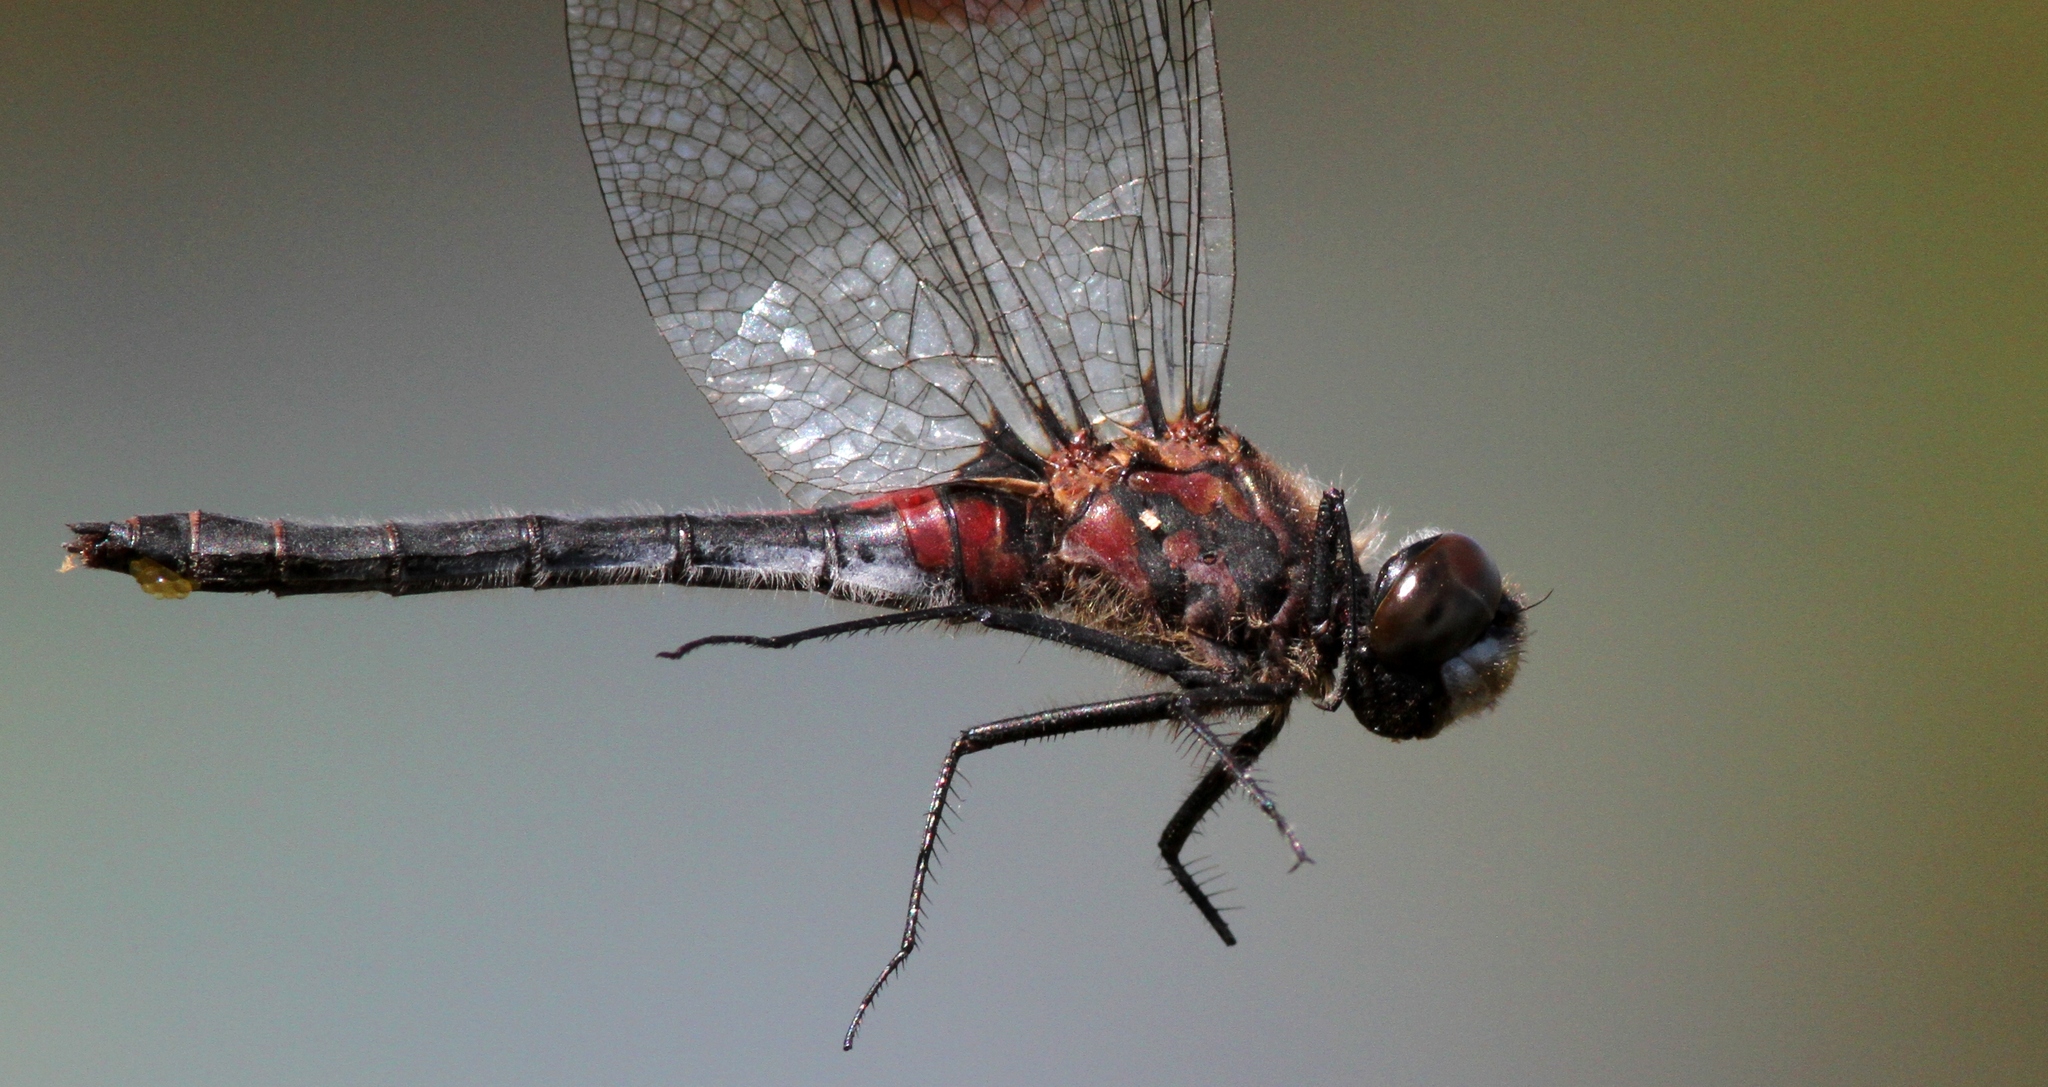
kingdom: Animalia
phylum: Arthropoda
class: Insecta
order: Odonata
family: Libellulidae
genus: Leucorrhinia
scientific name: Leucorrhinia glacialis
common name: Crimson-ringed whiteface
